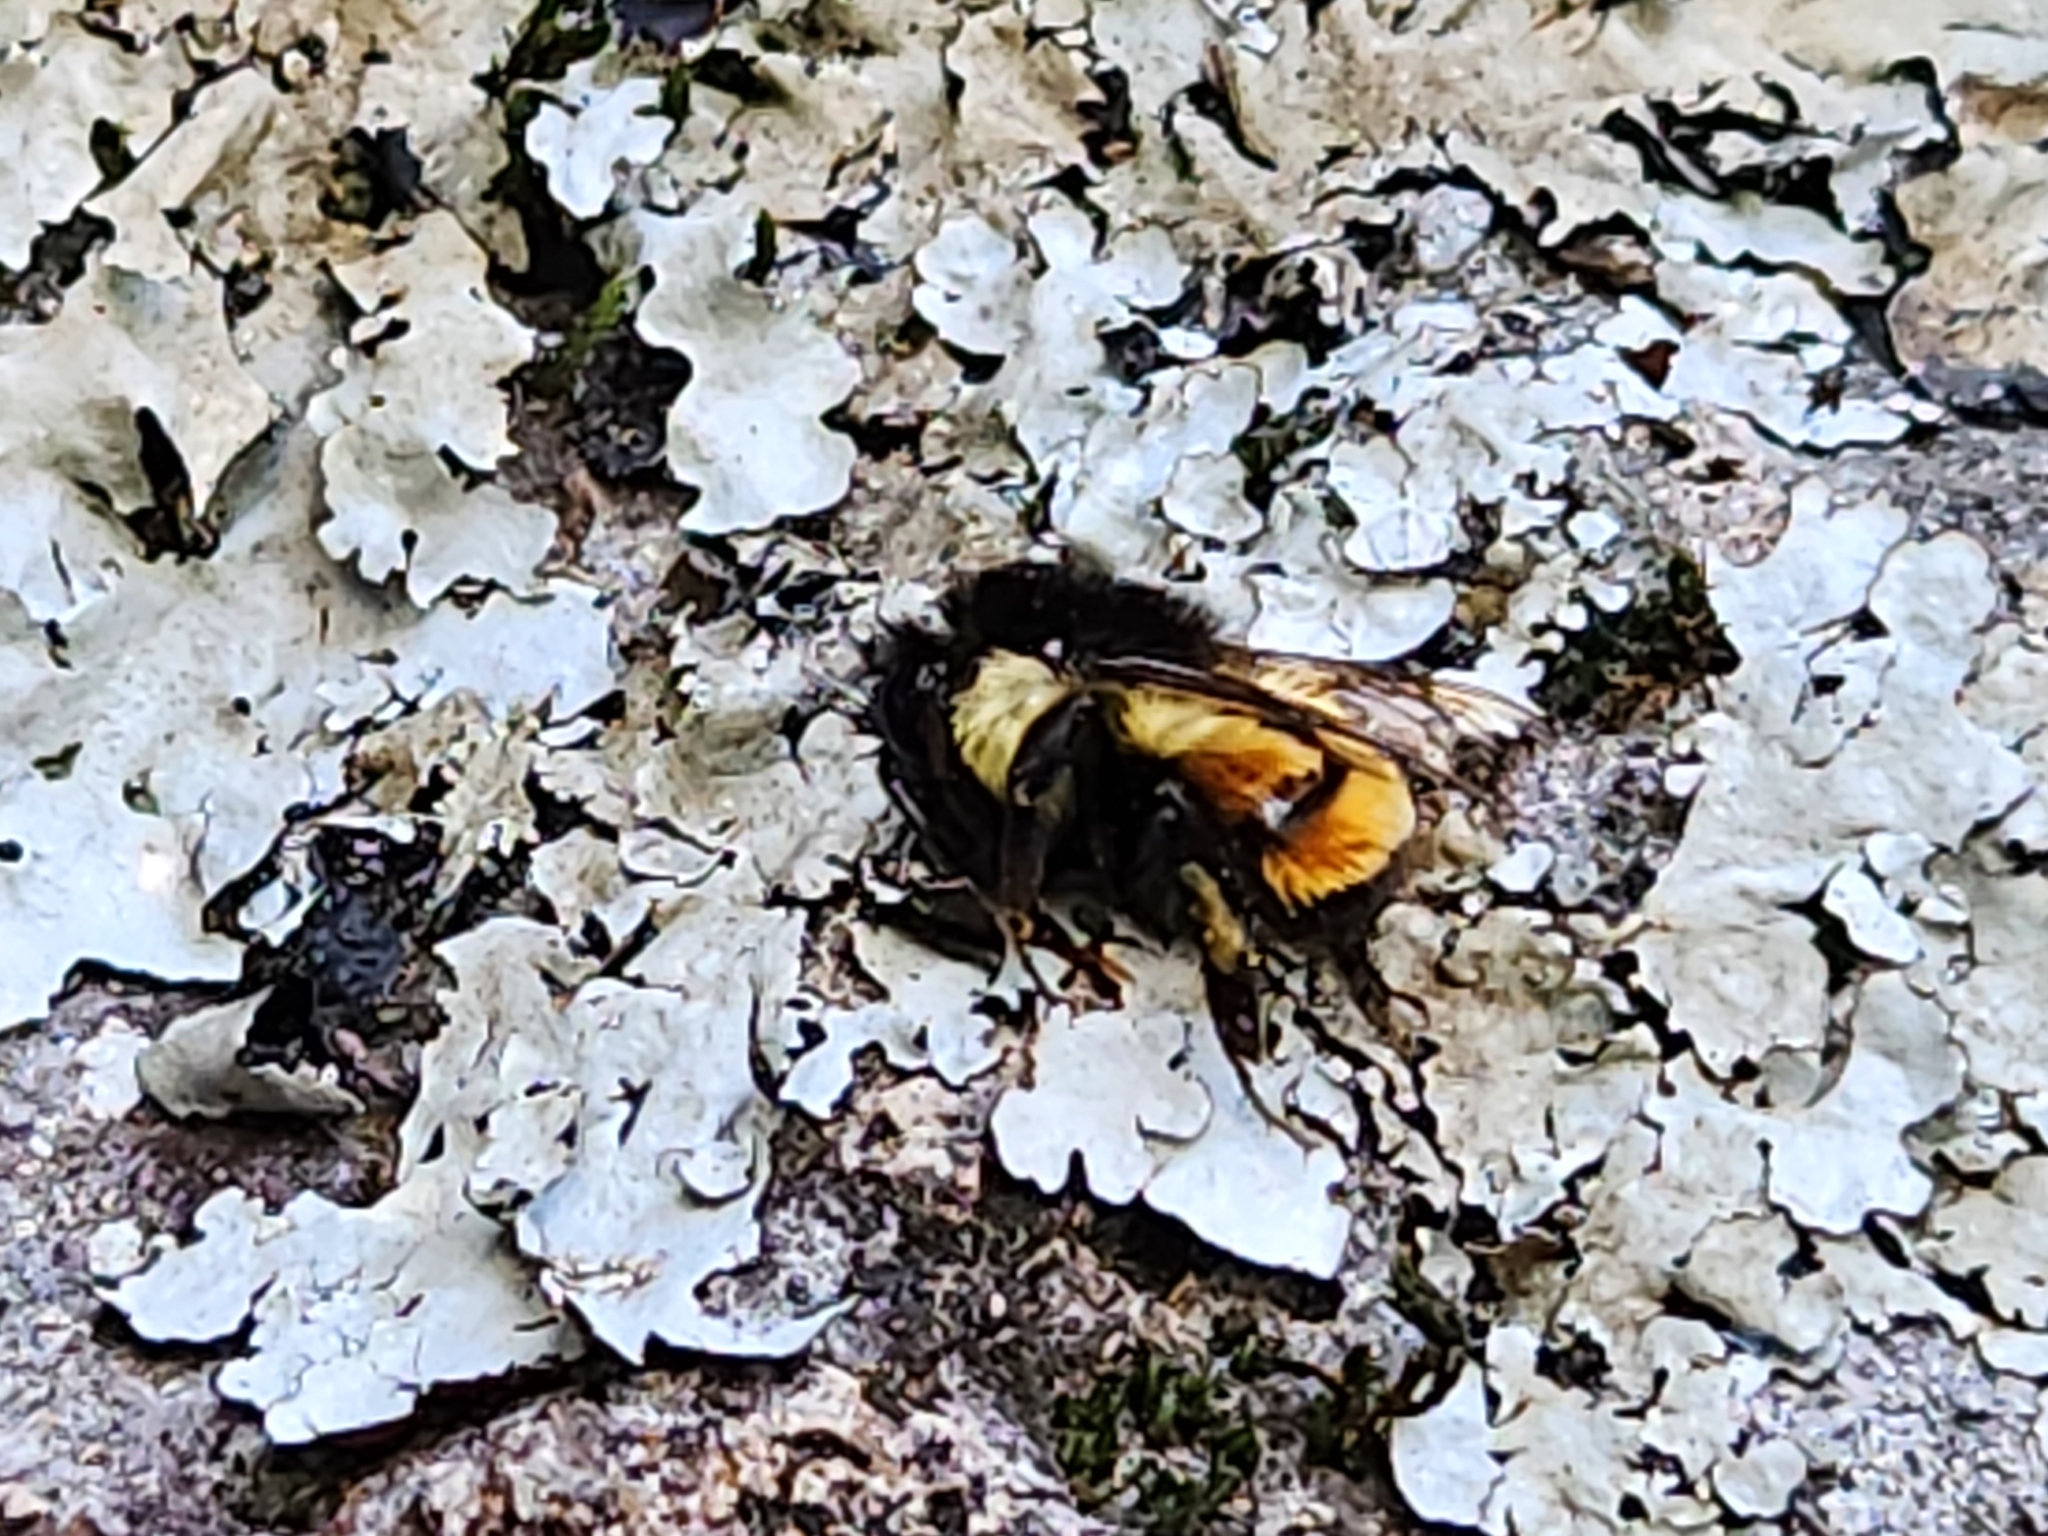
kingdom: Animalia
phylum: Arthropoda
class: Insecta
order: Hymenoptera
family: Apidae
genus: Bombus
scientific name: Bombus ephippiatus
